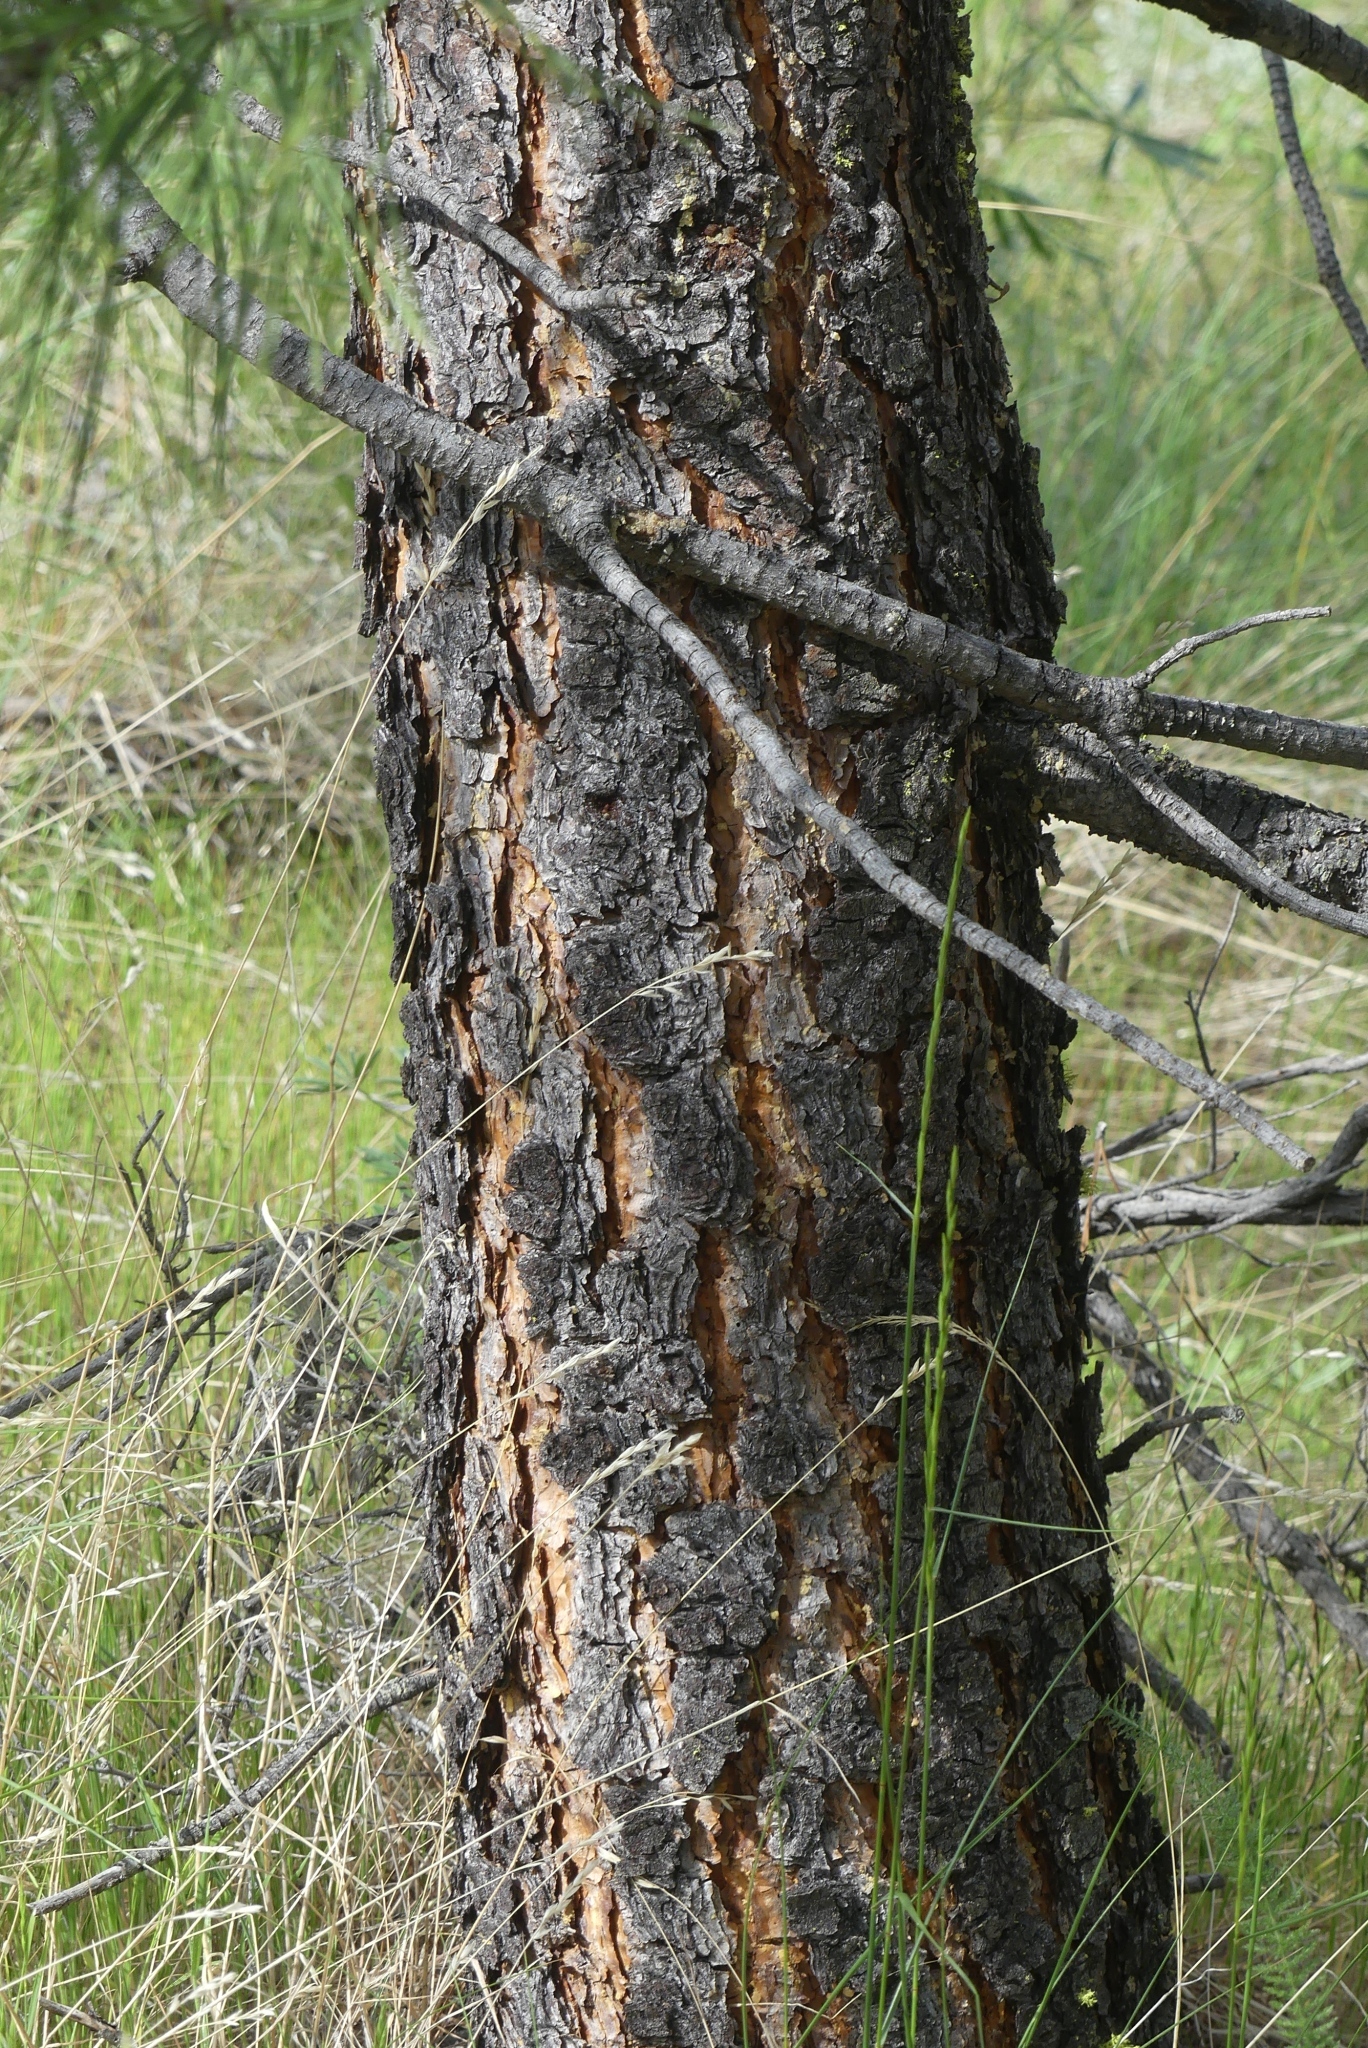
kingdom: Plantae
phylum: Tracheophyta
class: Pinopsida
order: Pinales
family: Pinaceae
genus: Pinus
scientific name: Pinus ponderosa
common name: Western yellow-pine
